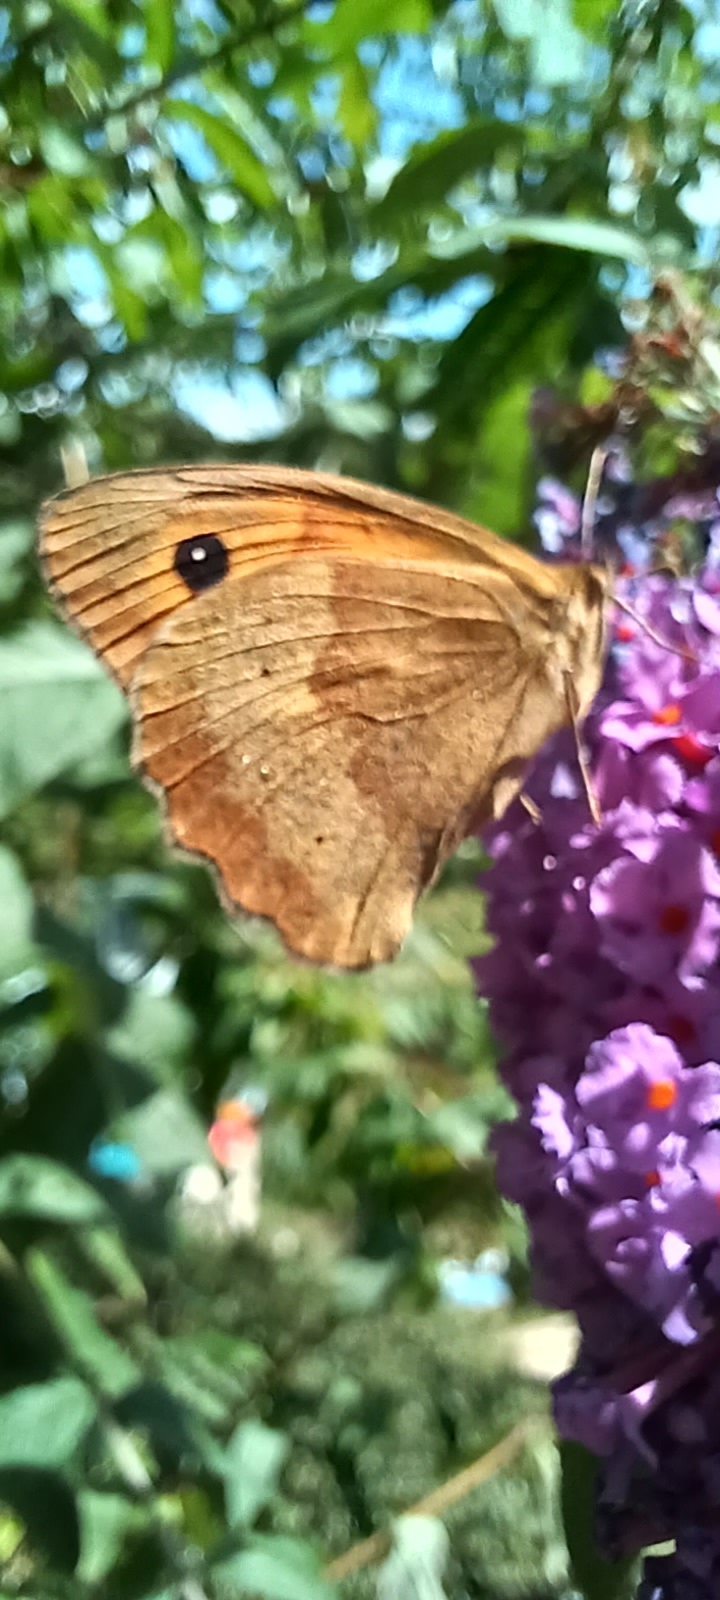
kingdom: Animalia
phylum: Arthropoda
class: Insecta
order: Lepidoptera
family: Nymphalidae
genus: Maniola
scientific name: Maniola jurtina
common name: Meadow brown
